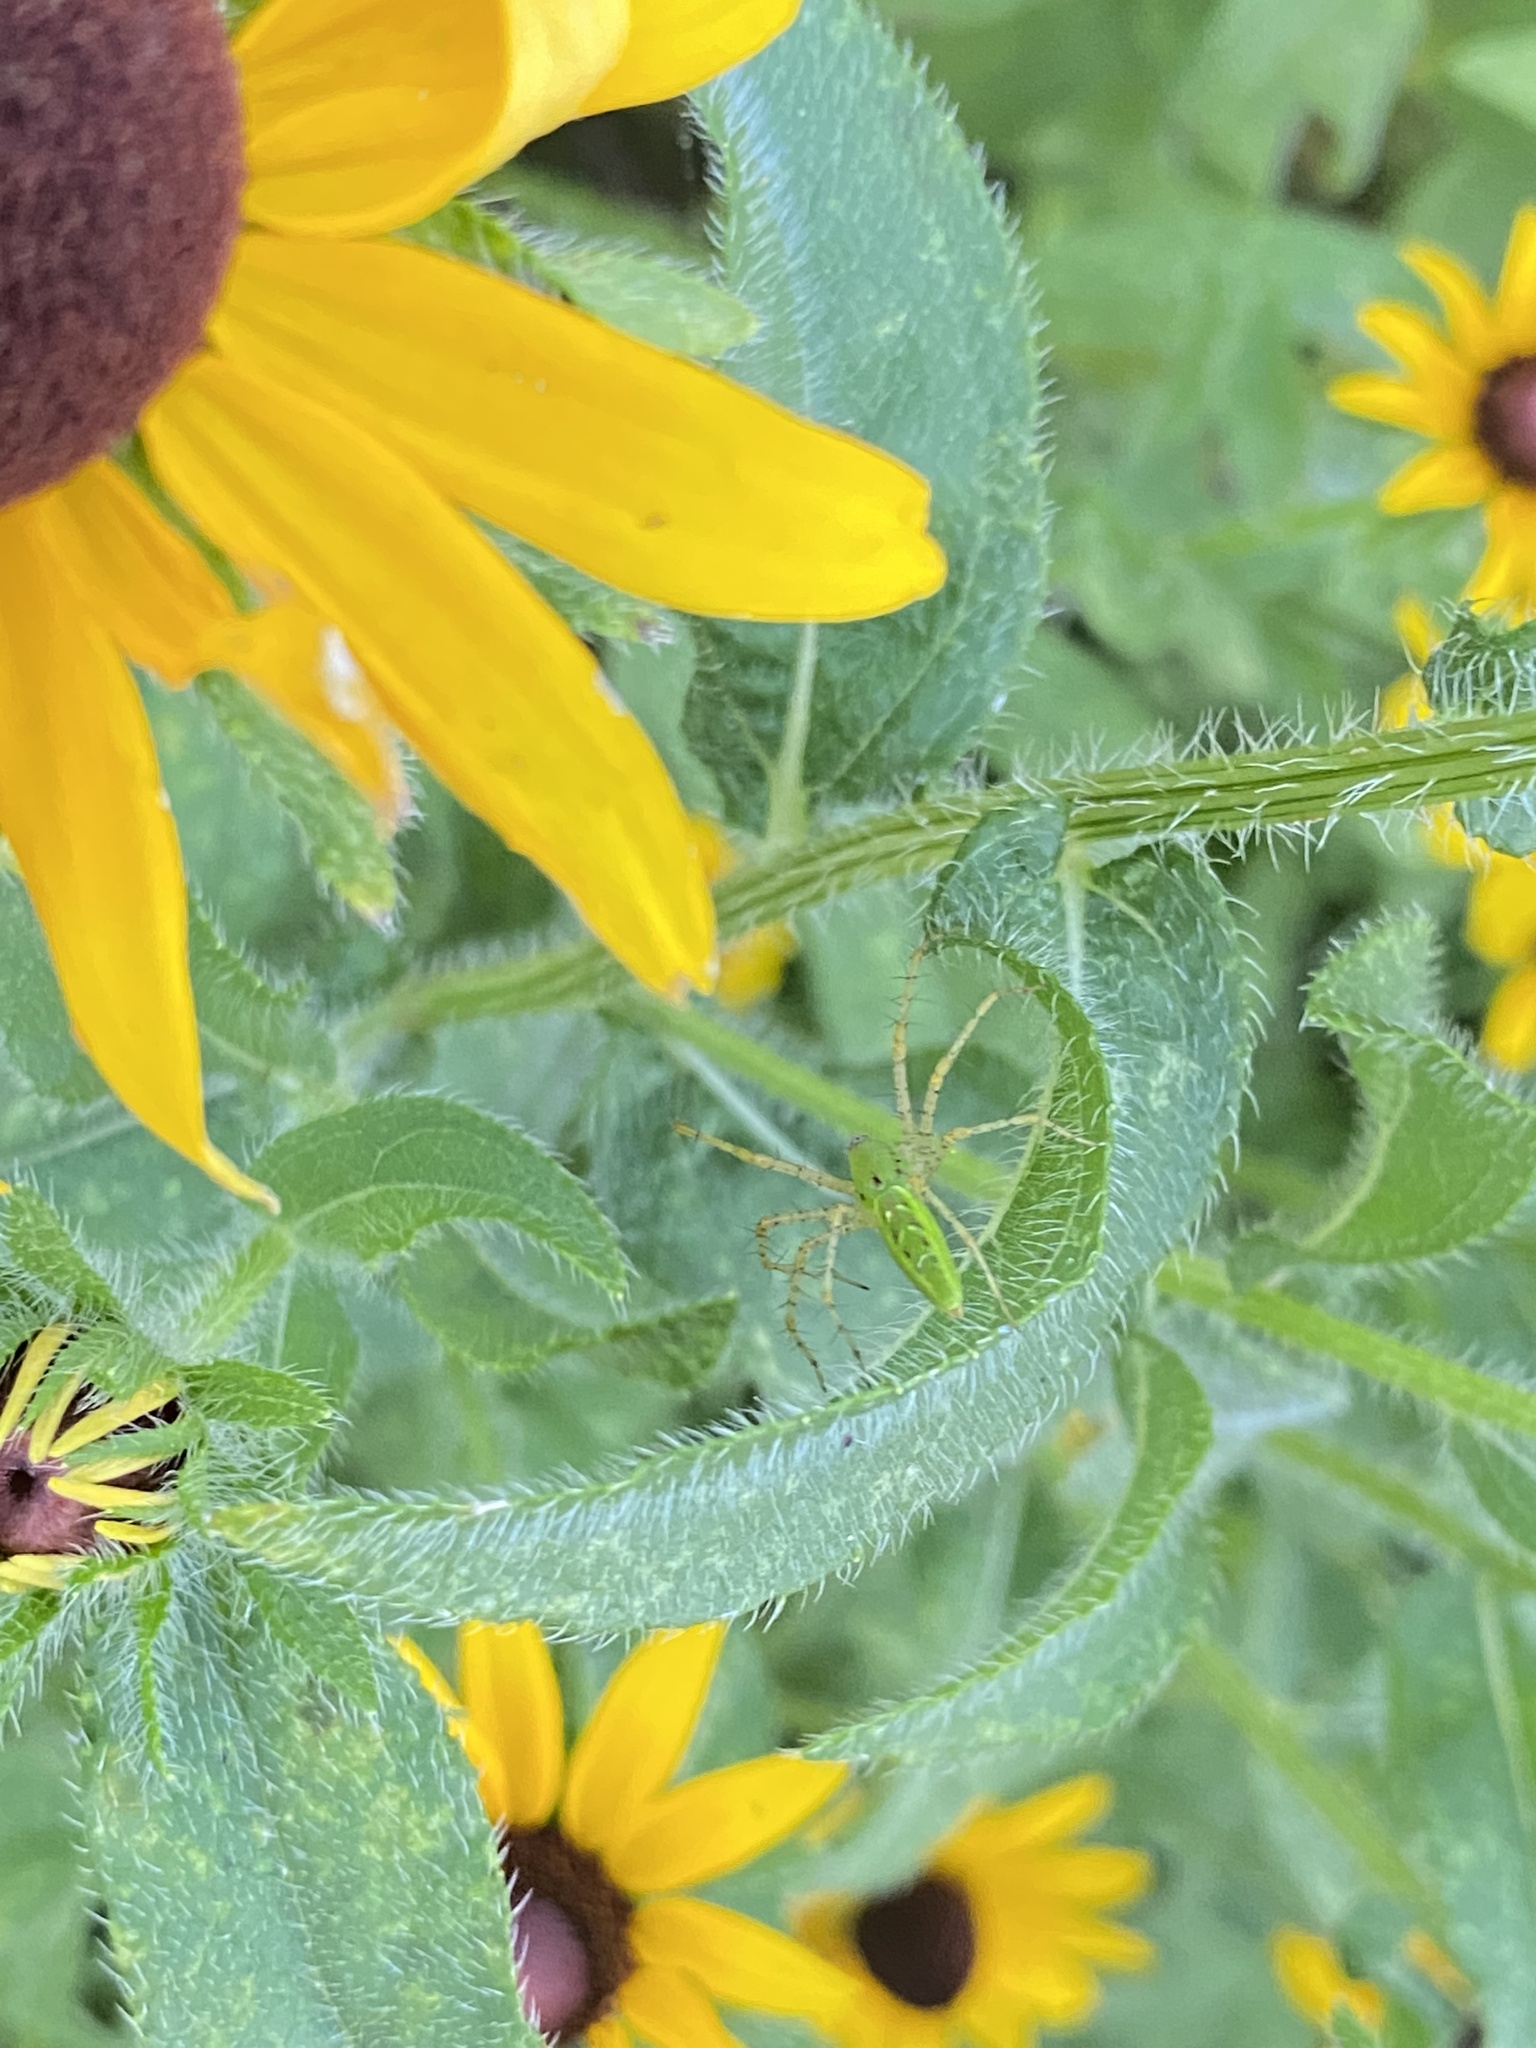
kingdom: Animalia
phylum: Arthropoda
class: Arachnida
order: Araneae
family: Oxyopidae
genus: Peucetia
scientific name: Peucetia viridans
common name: Lynx spiders
